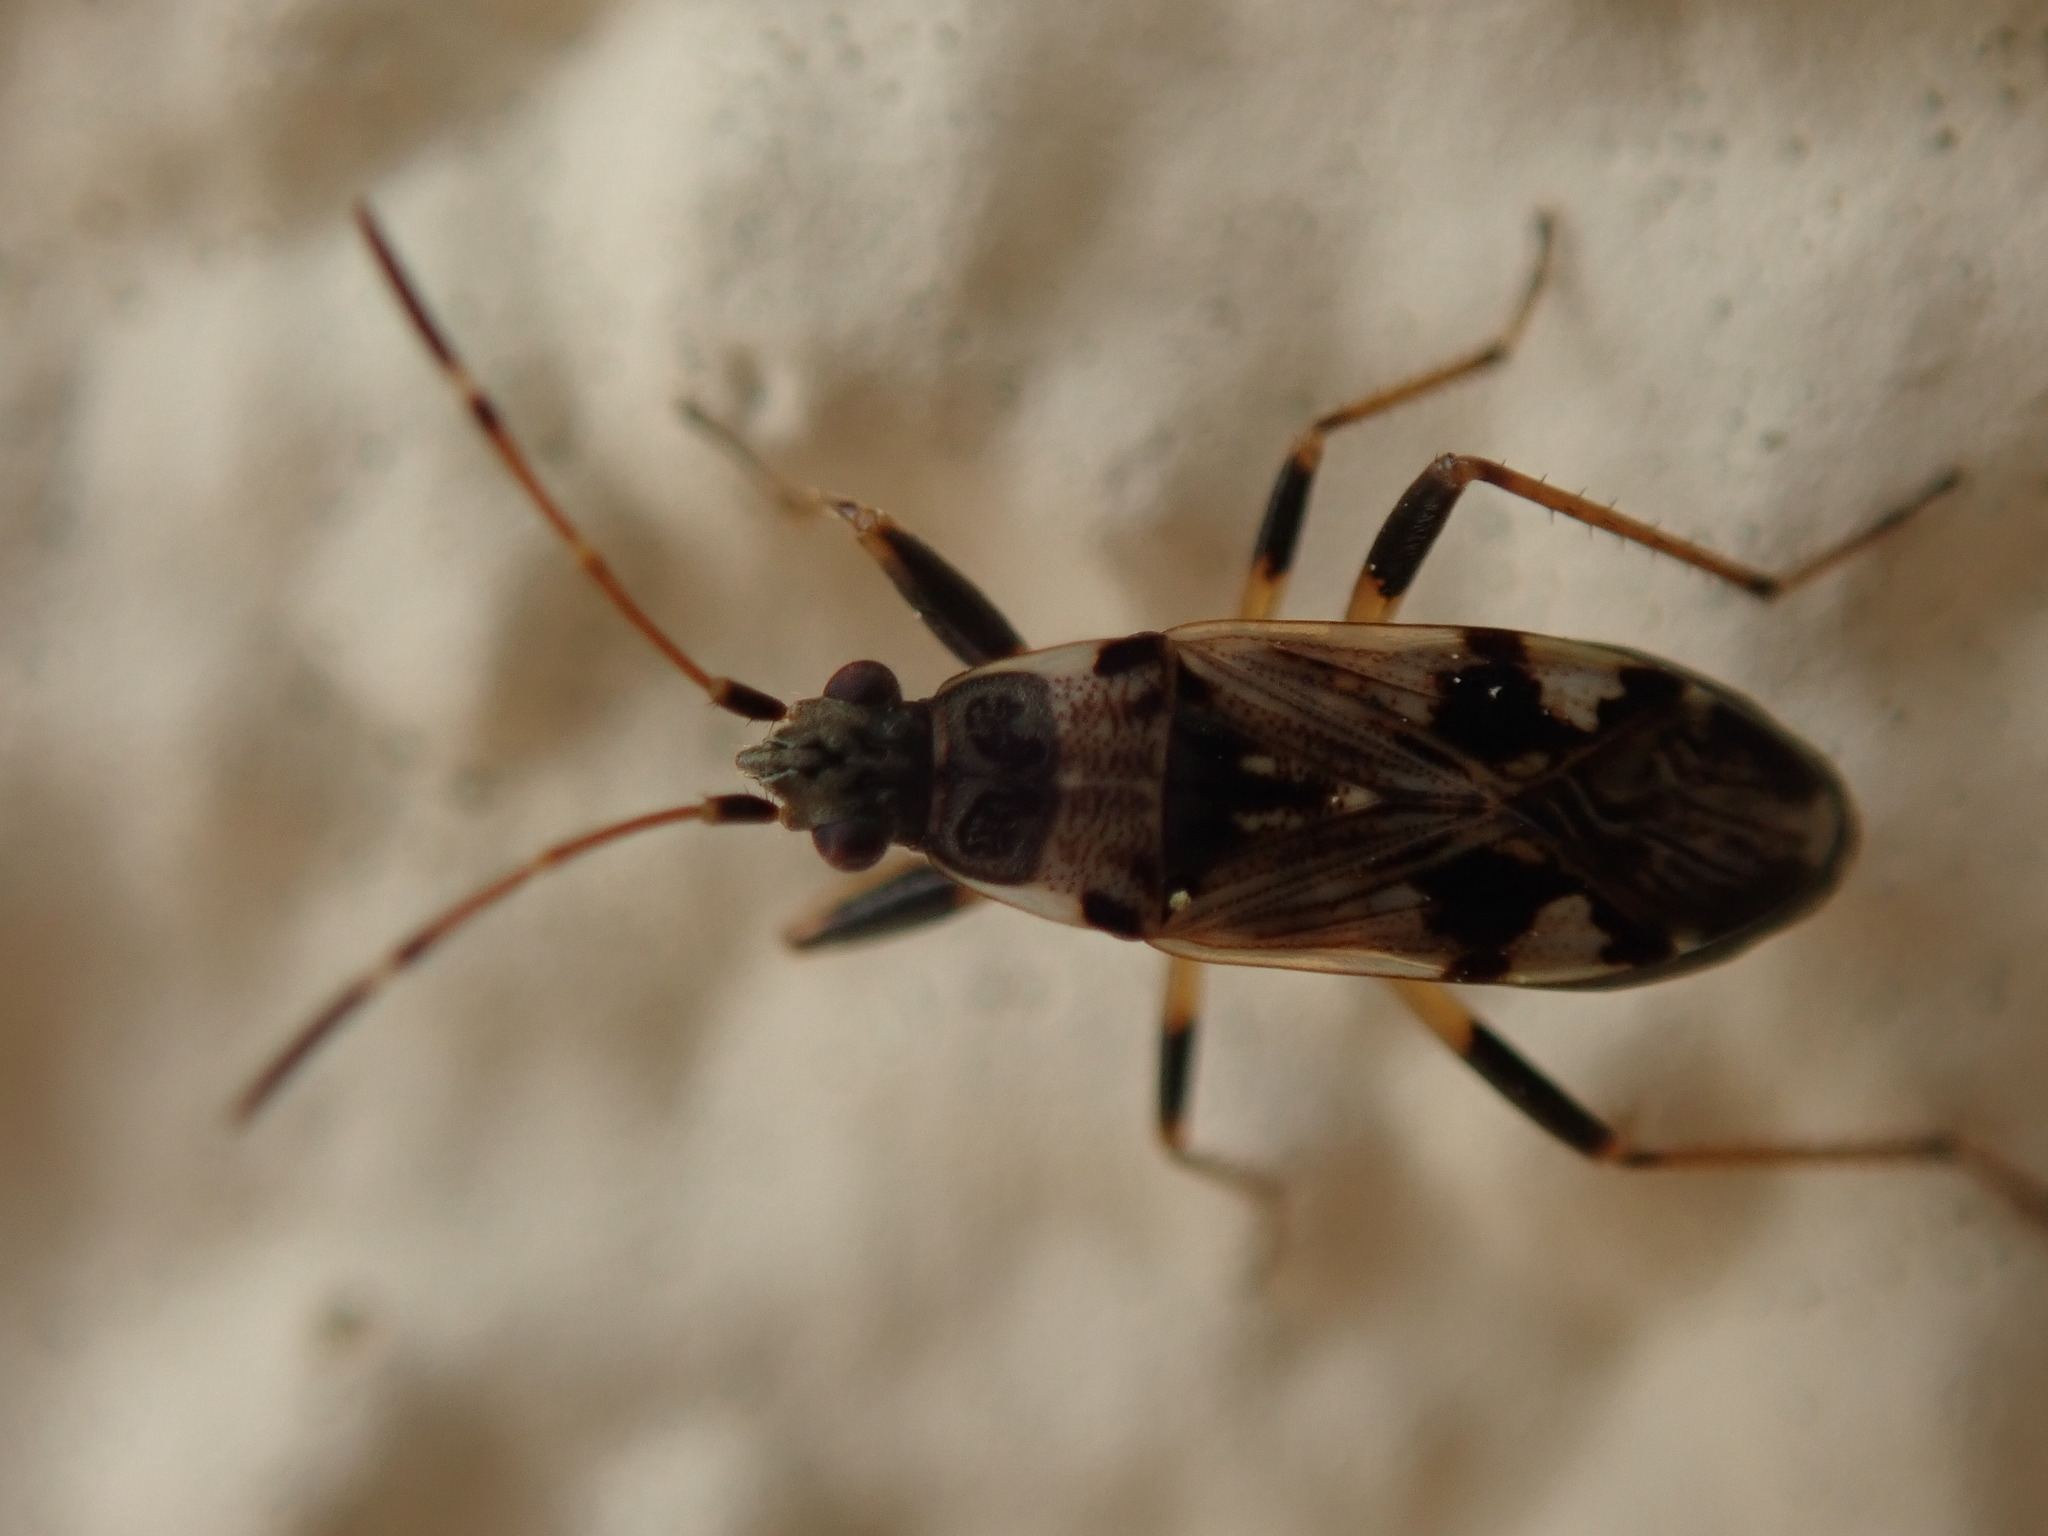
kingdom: Animalia
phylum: Arthropoda
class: Insecta
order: Hemiptera
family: Rhyparochromidae
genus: Beosus
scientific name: Beosus maritimus
